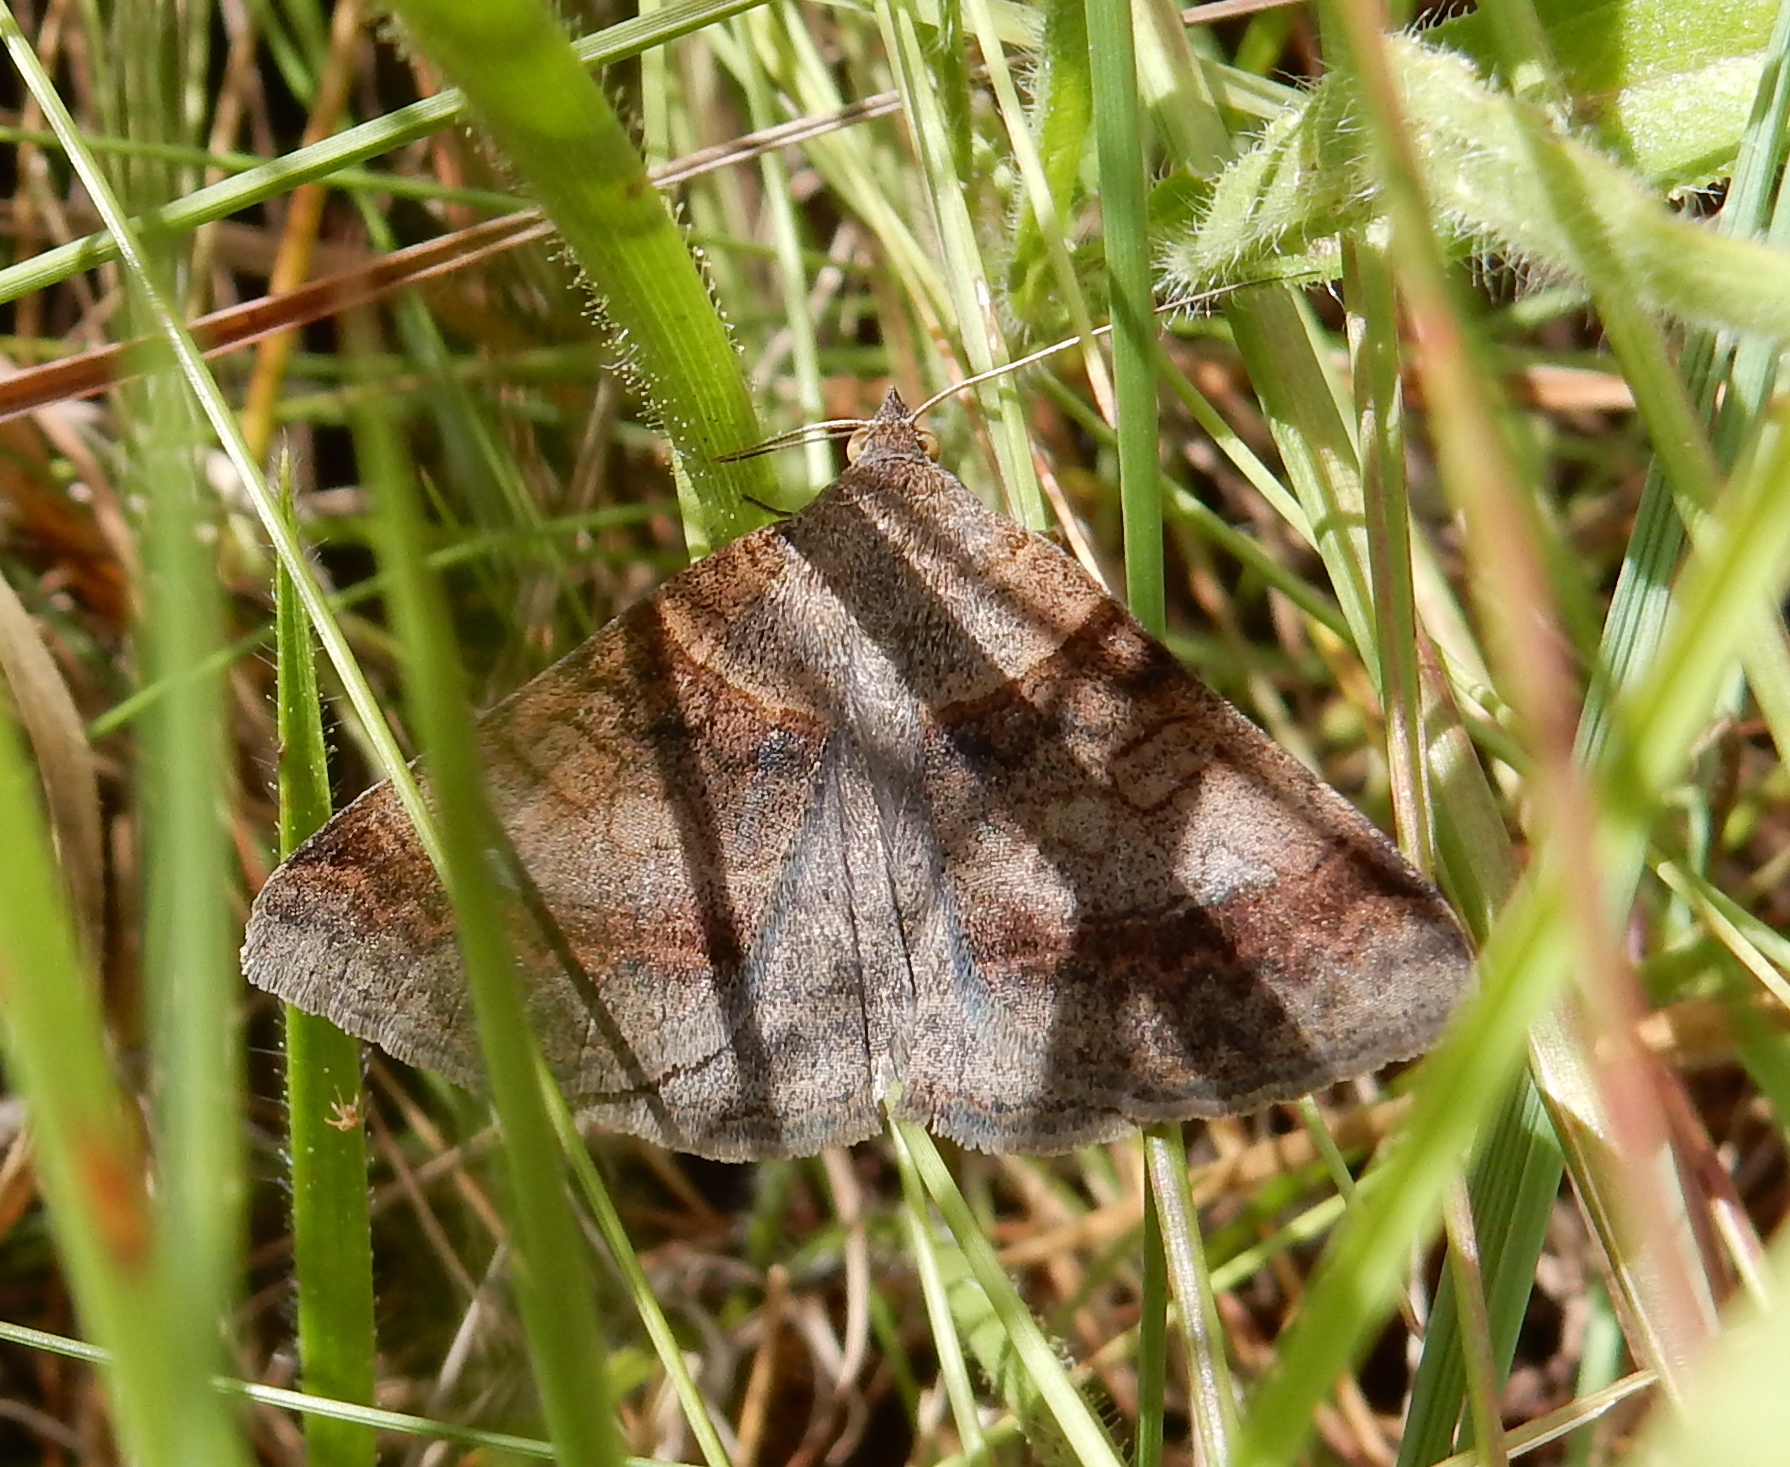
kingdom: Animalia
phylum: Arthropoda
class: Insecta
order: Lepidoptera
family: Erebidae
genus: Mocis
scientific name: Mocis mutuaria
